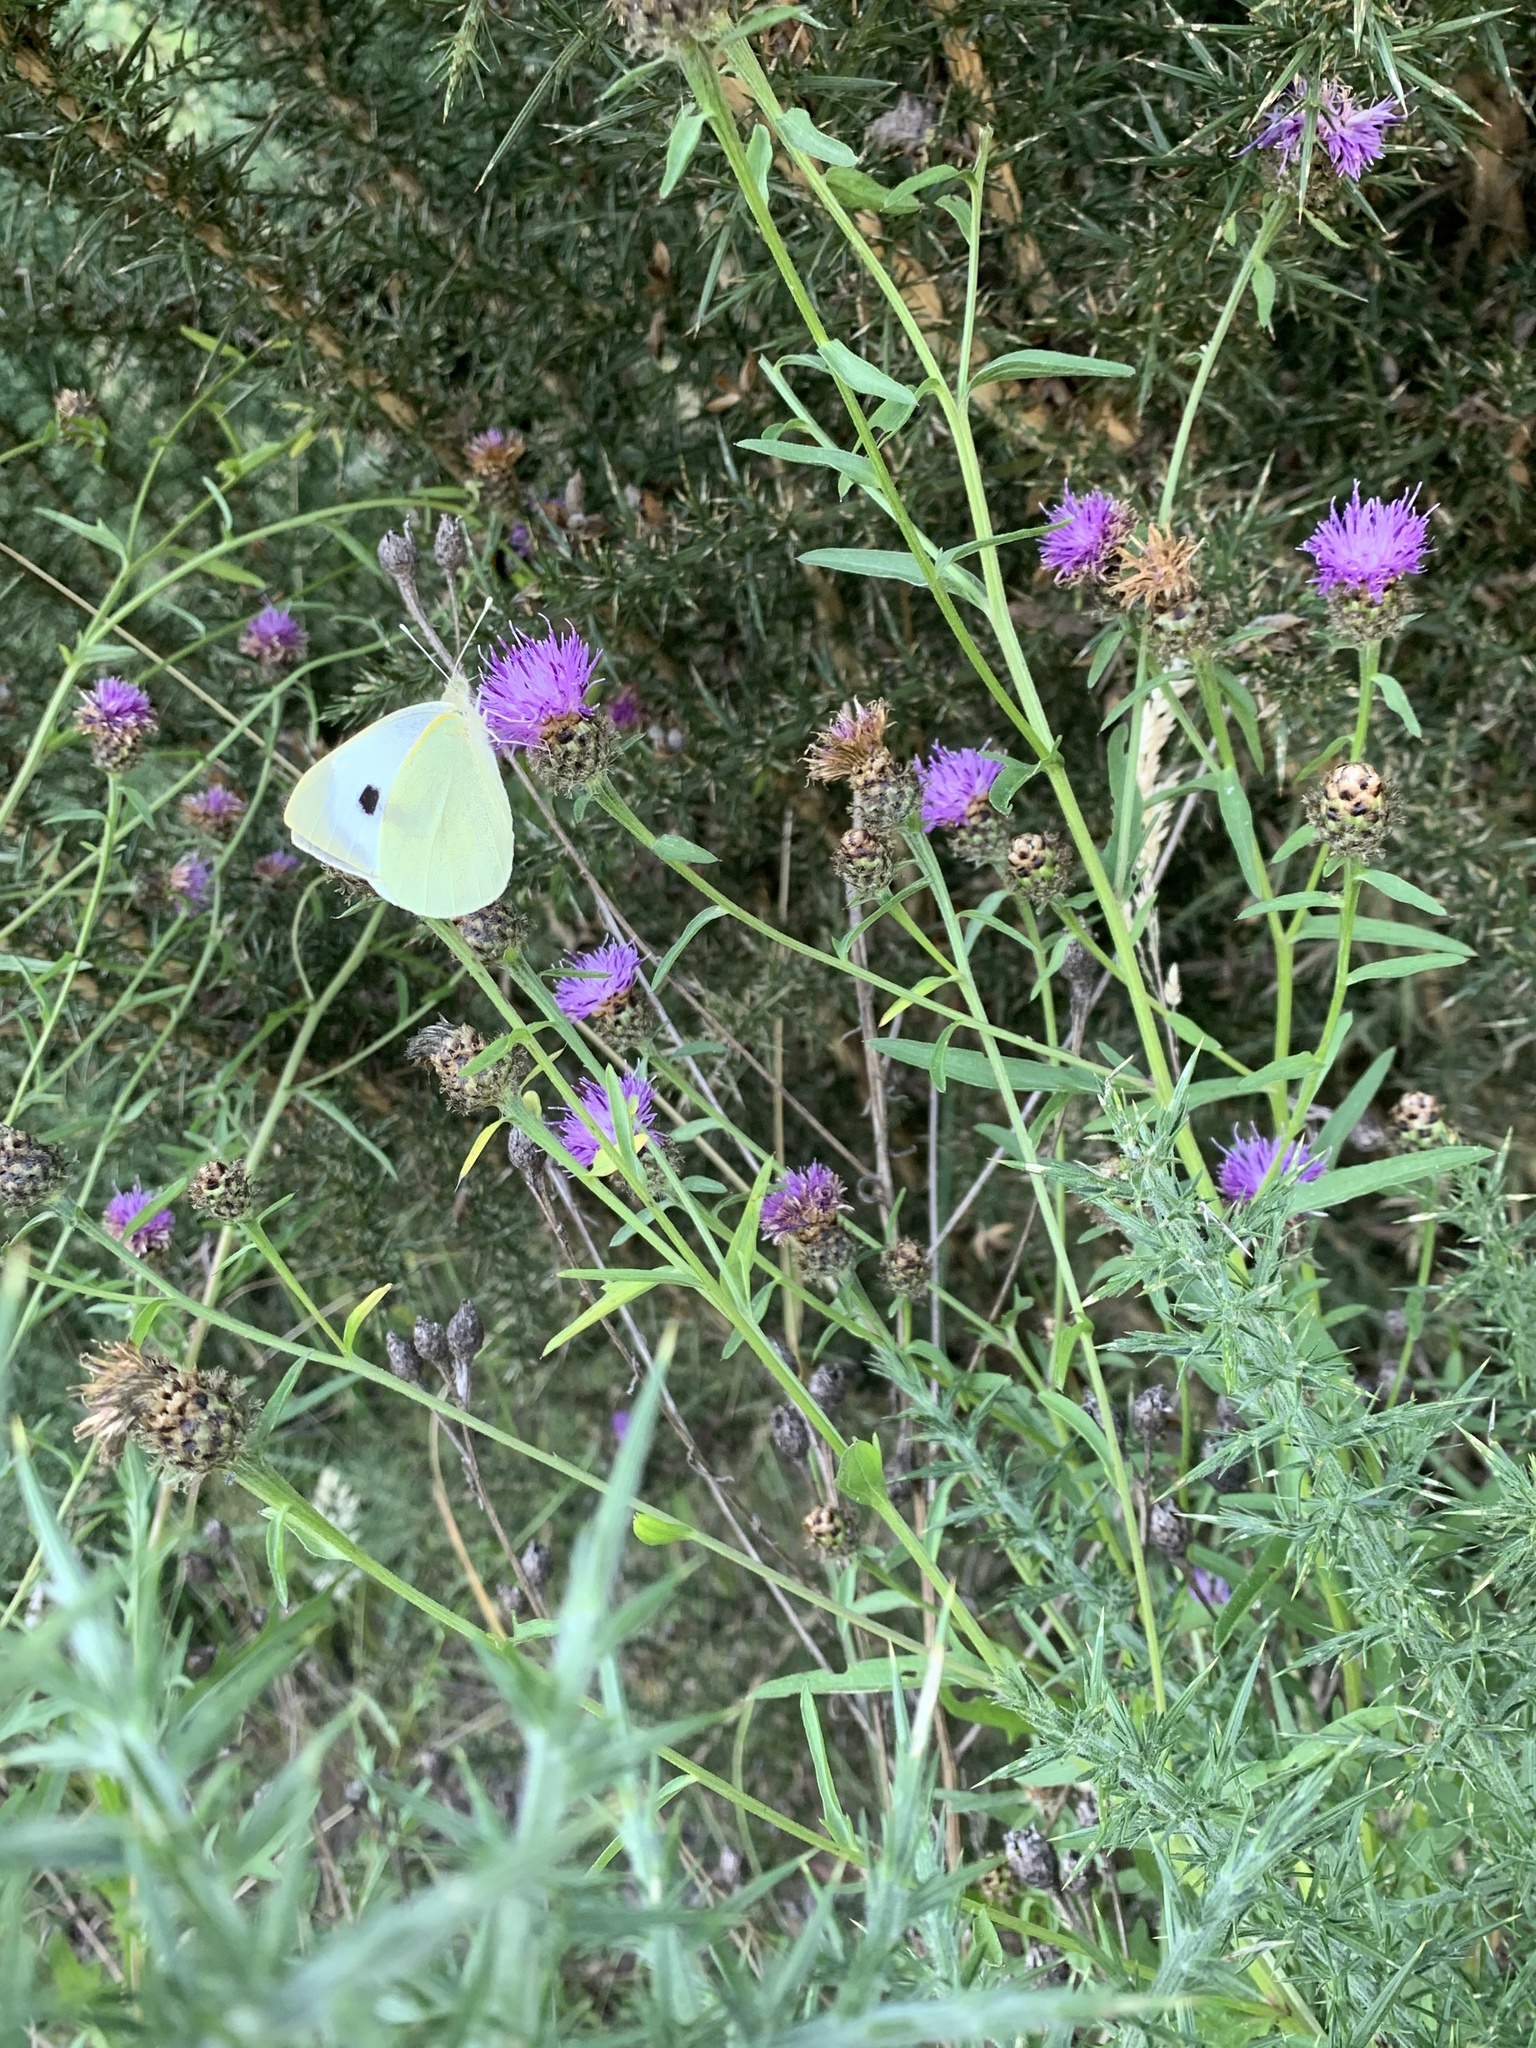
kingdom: Animalia
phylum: Arthropoda
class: Insecta
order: Lepidoptera
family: Pieridae
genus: Pieris
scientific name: Pieris brassicae
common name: Large white
